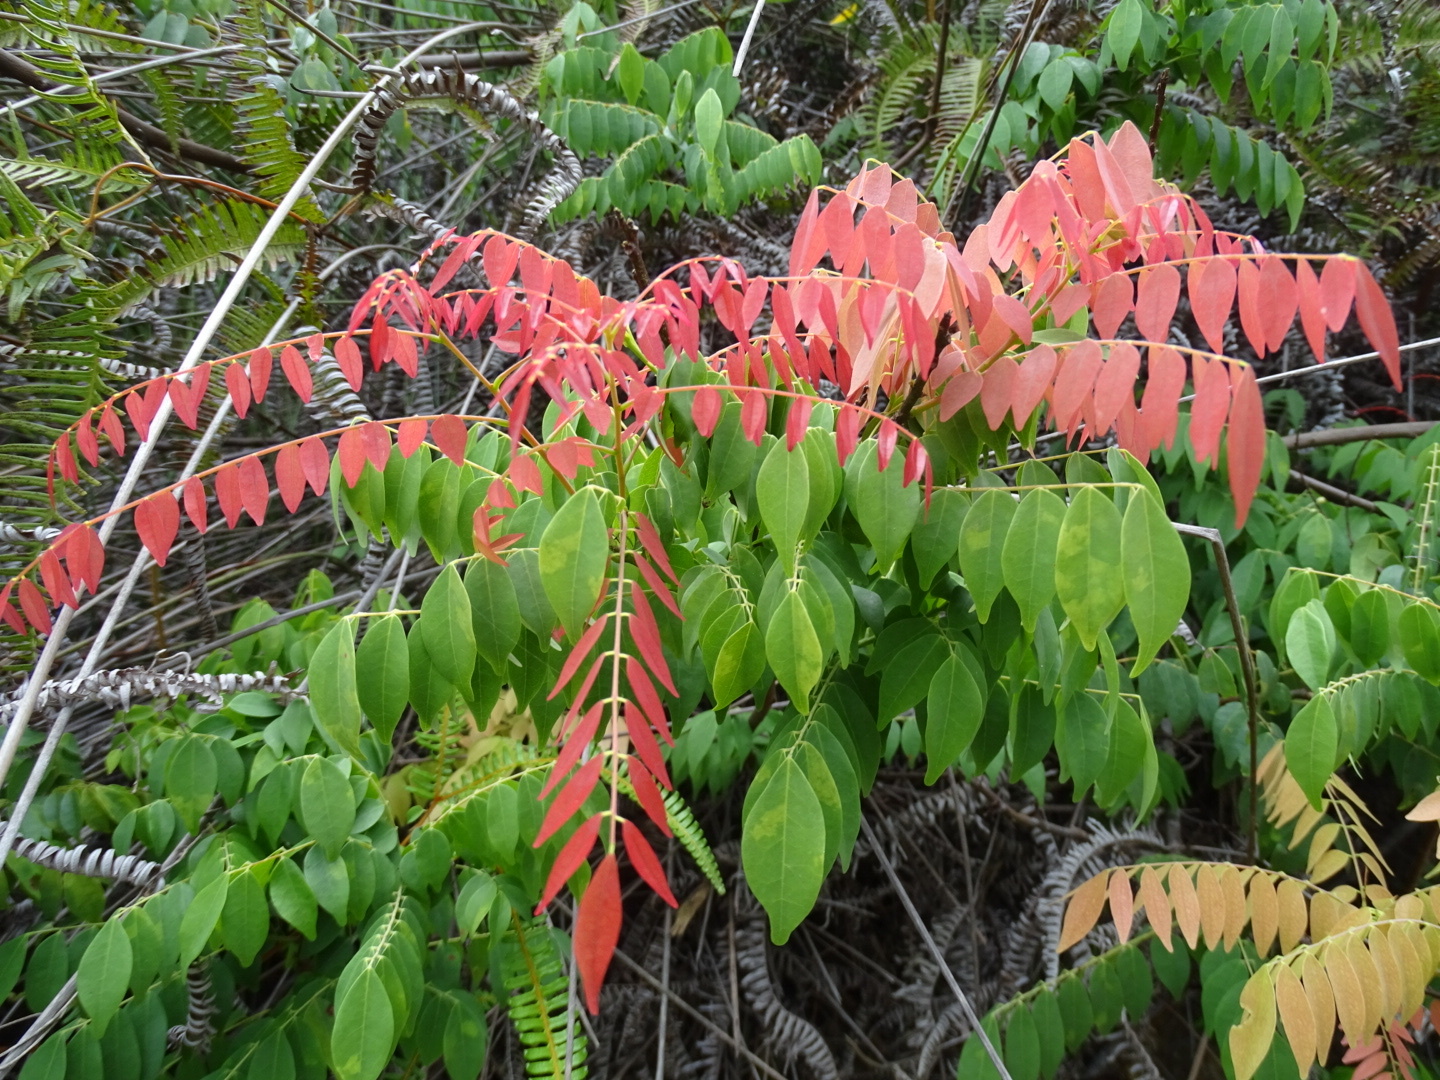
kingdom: Plantae
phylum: Tracheophyta
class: Magnoliopsida
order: Oxalidales
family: Connaraceae
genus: Rourea
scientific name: Rourea microphylla
